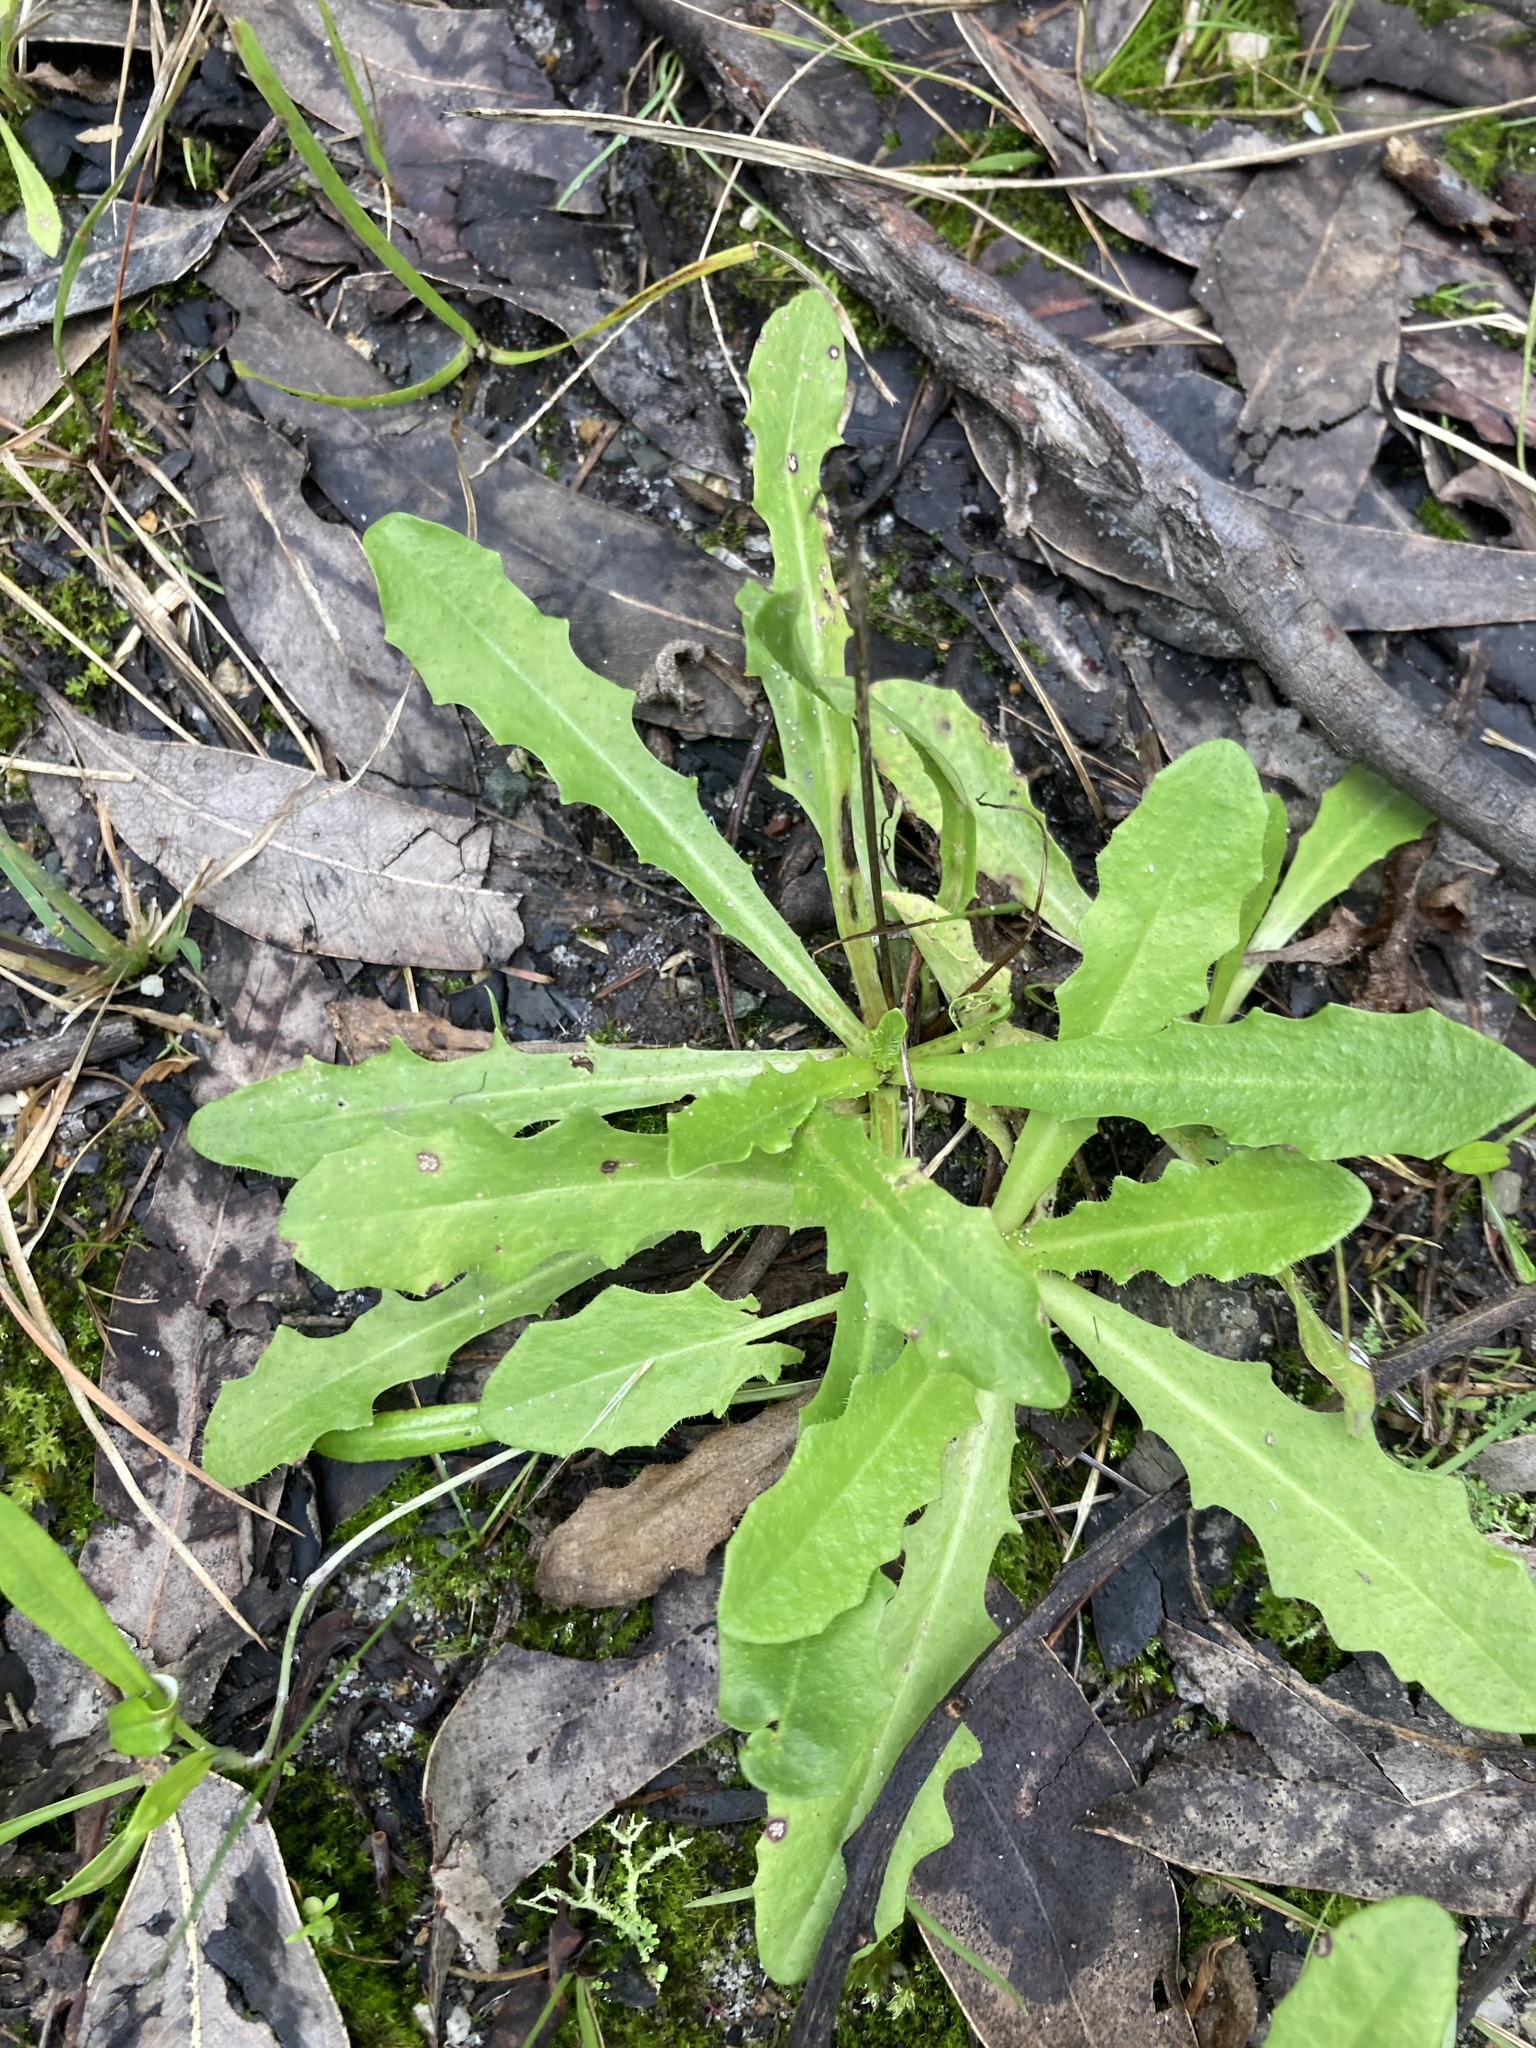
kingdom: Plantae
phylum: Tracheophyta
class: Magnoliopsida
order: Asterales
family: Asteraceae
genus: Hypochaeris
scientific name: Hypochaeris radicata
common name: Flatweed
